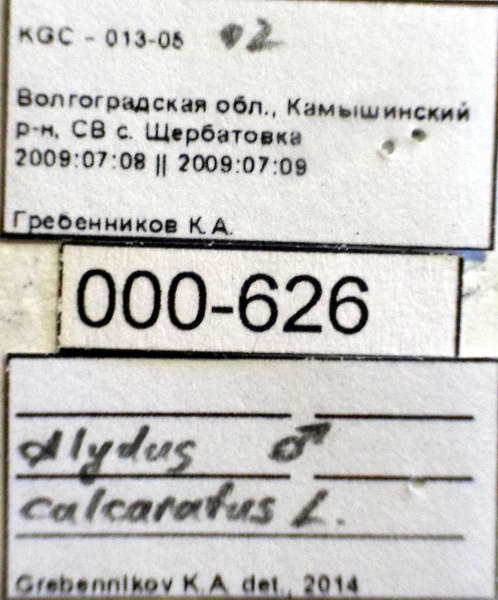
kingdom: Animalia
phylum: Arthropoda
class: Insecta
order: Hemiptera
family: Alydidae
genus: Alydus
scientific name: Alydus calcaratus
